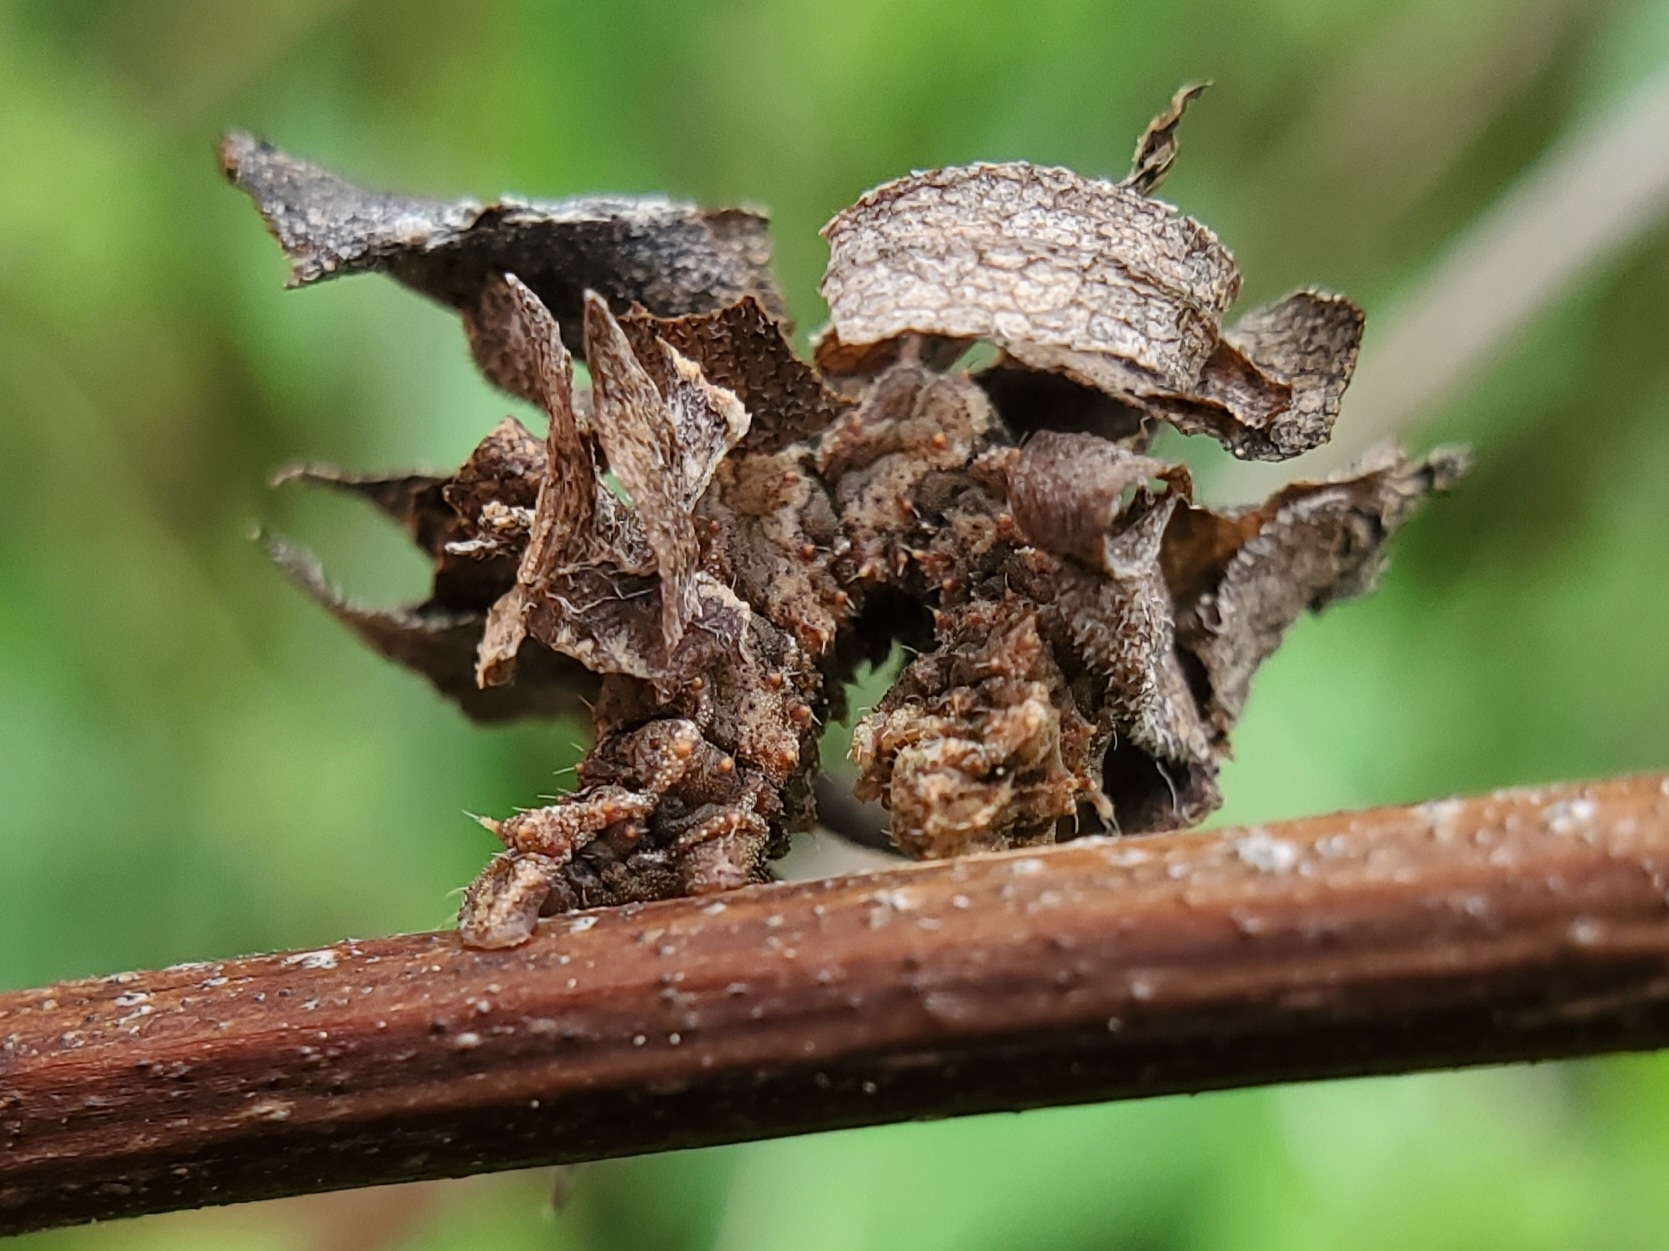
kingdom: Animalia
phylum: Arthropoda
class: Insecta
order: Lepidoptera
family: Geometridae
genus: Synchlora
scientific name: Synchlora aerata
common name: Wavy-lined emerald
